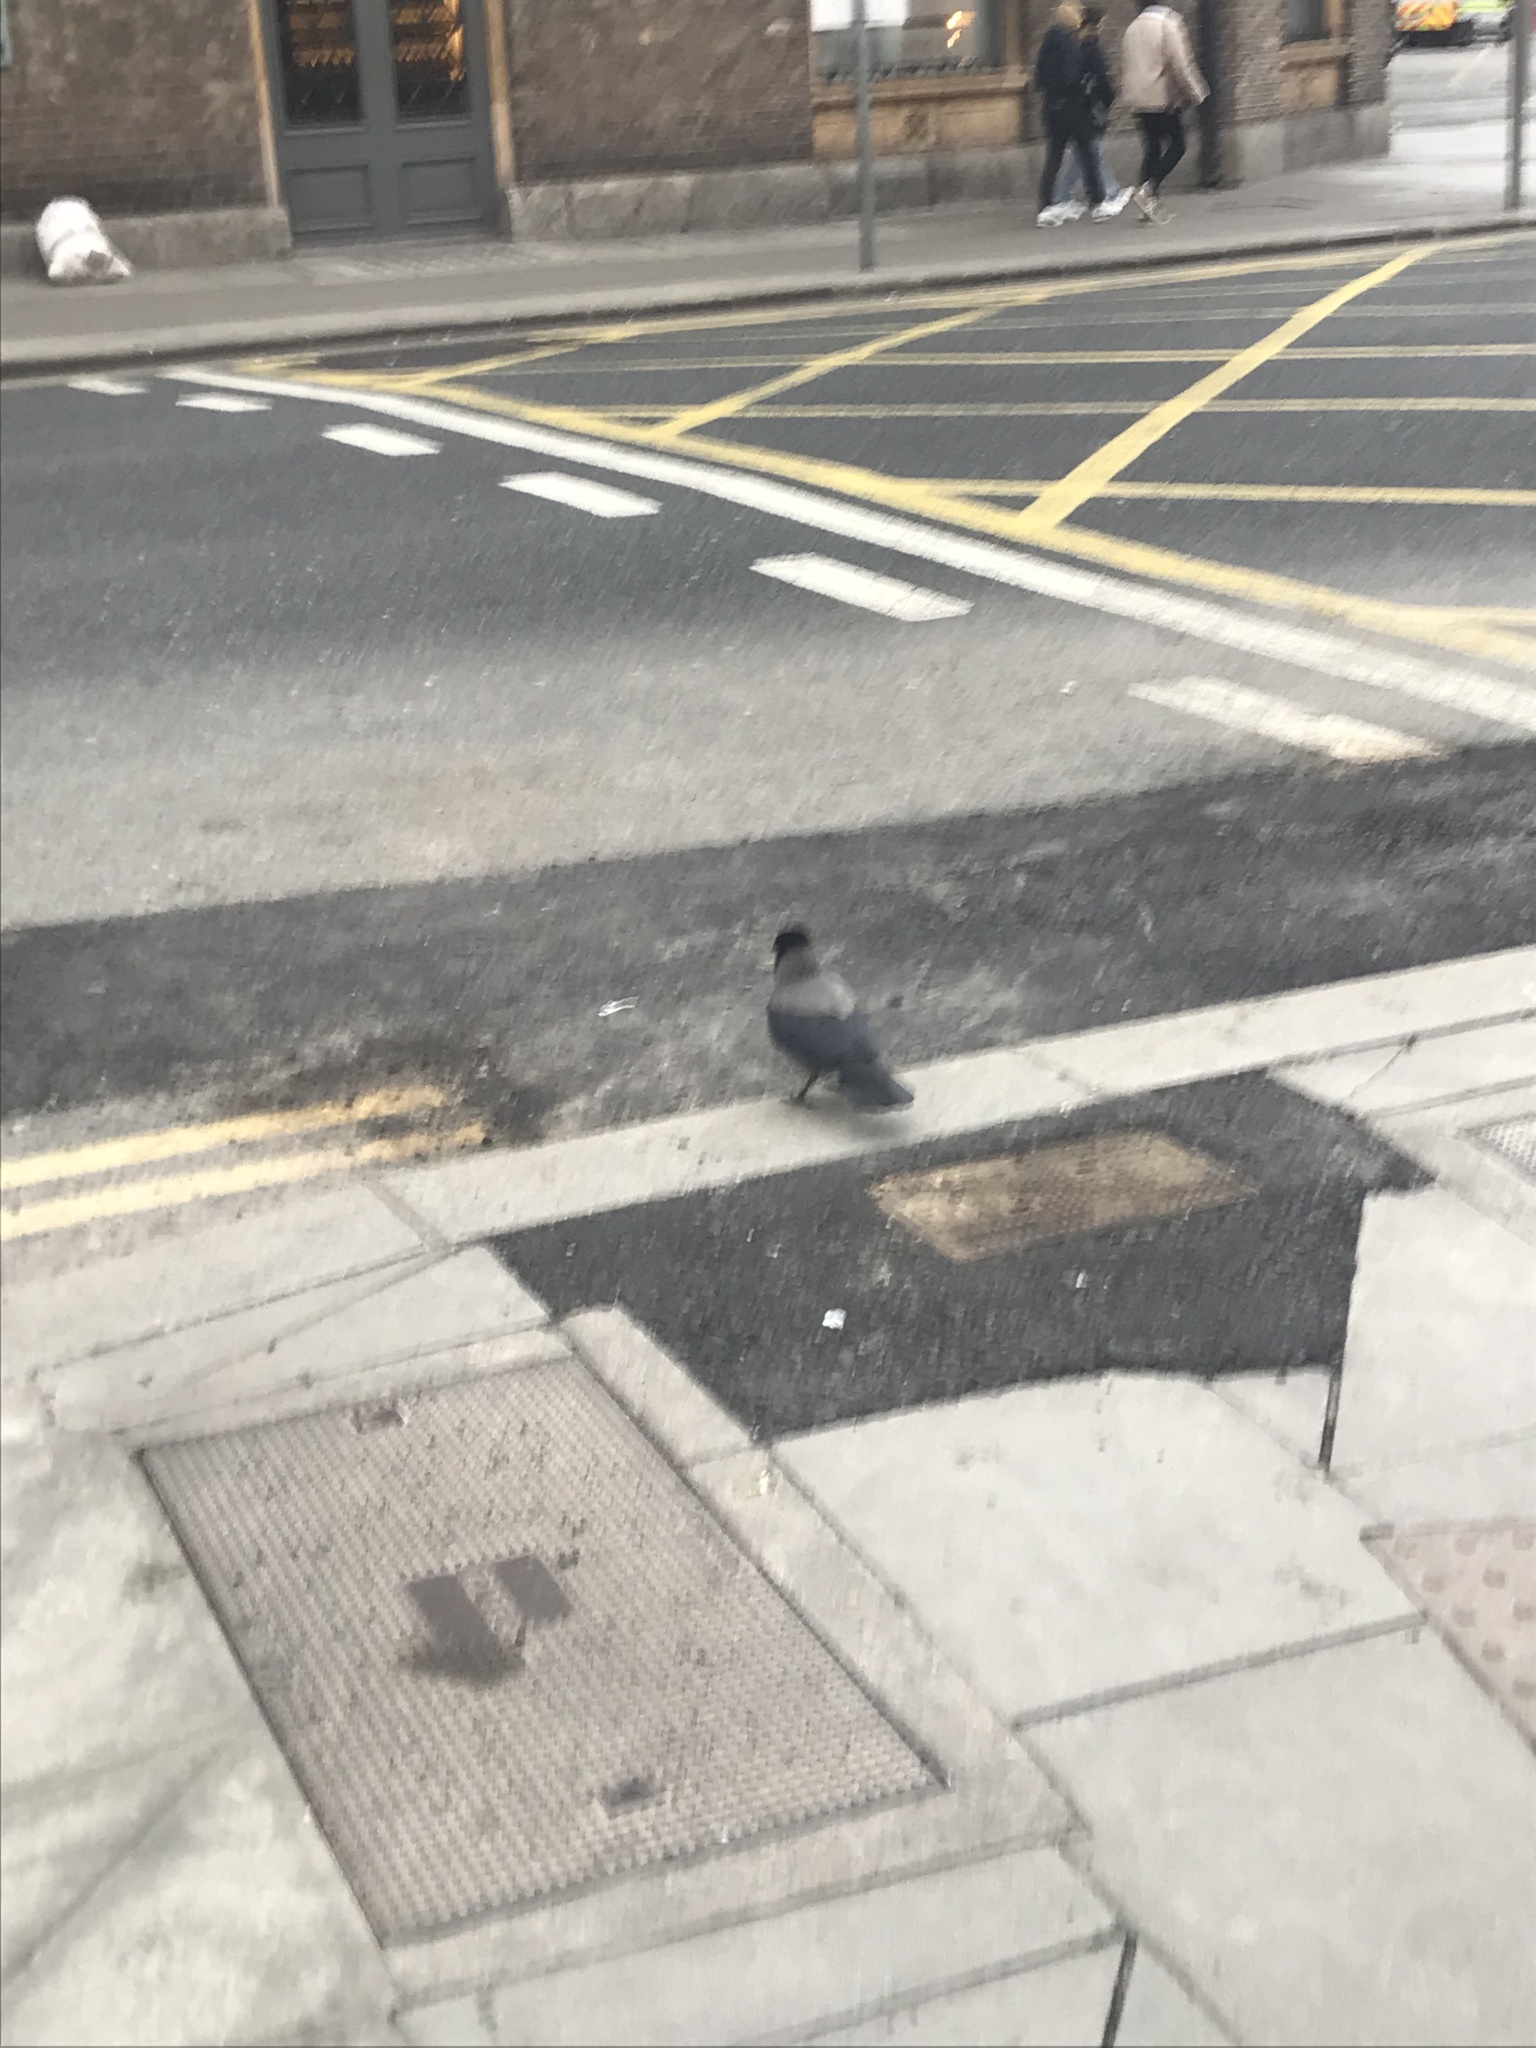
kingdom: Animalia
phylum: Chordata
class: Aves
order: Passeriformes
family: Corvidae
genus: Corvus
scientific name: Corvus cornix
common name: Hooded crow
